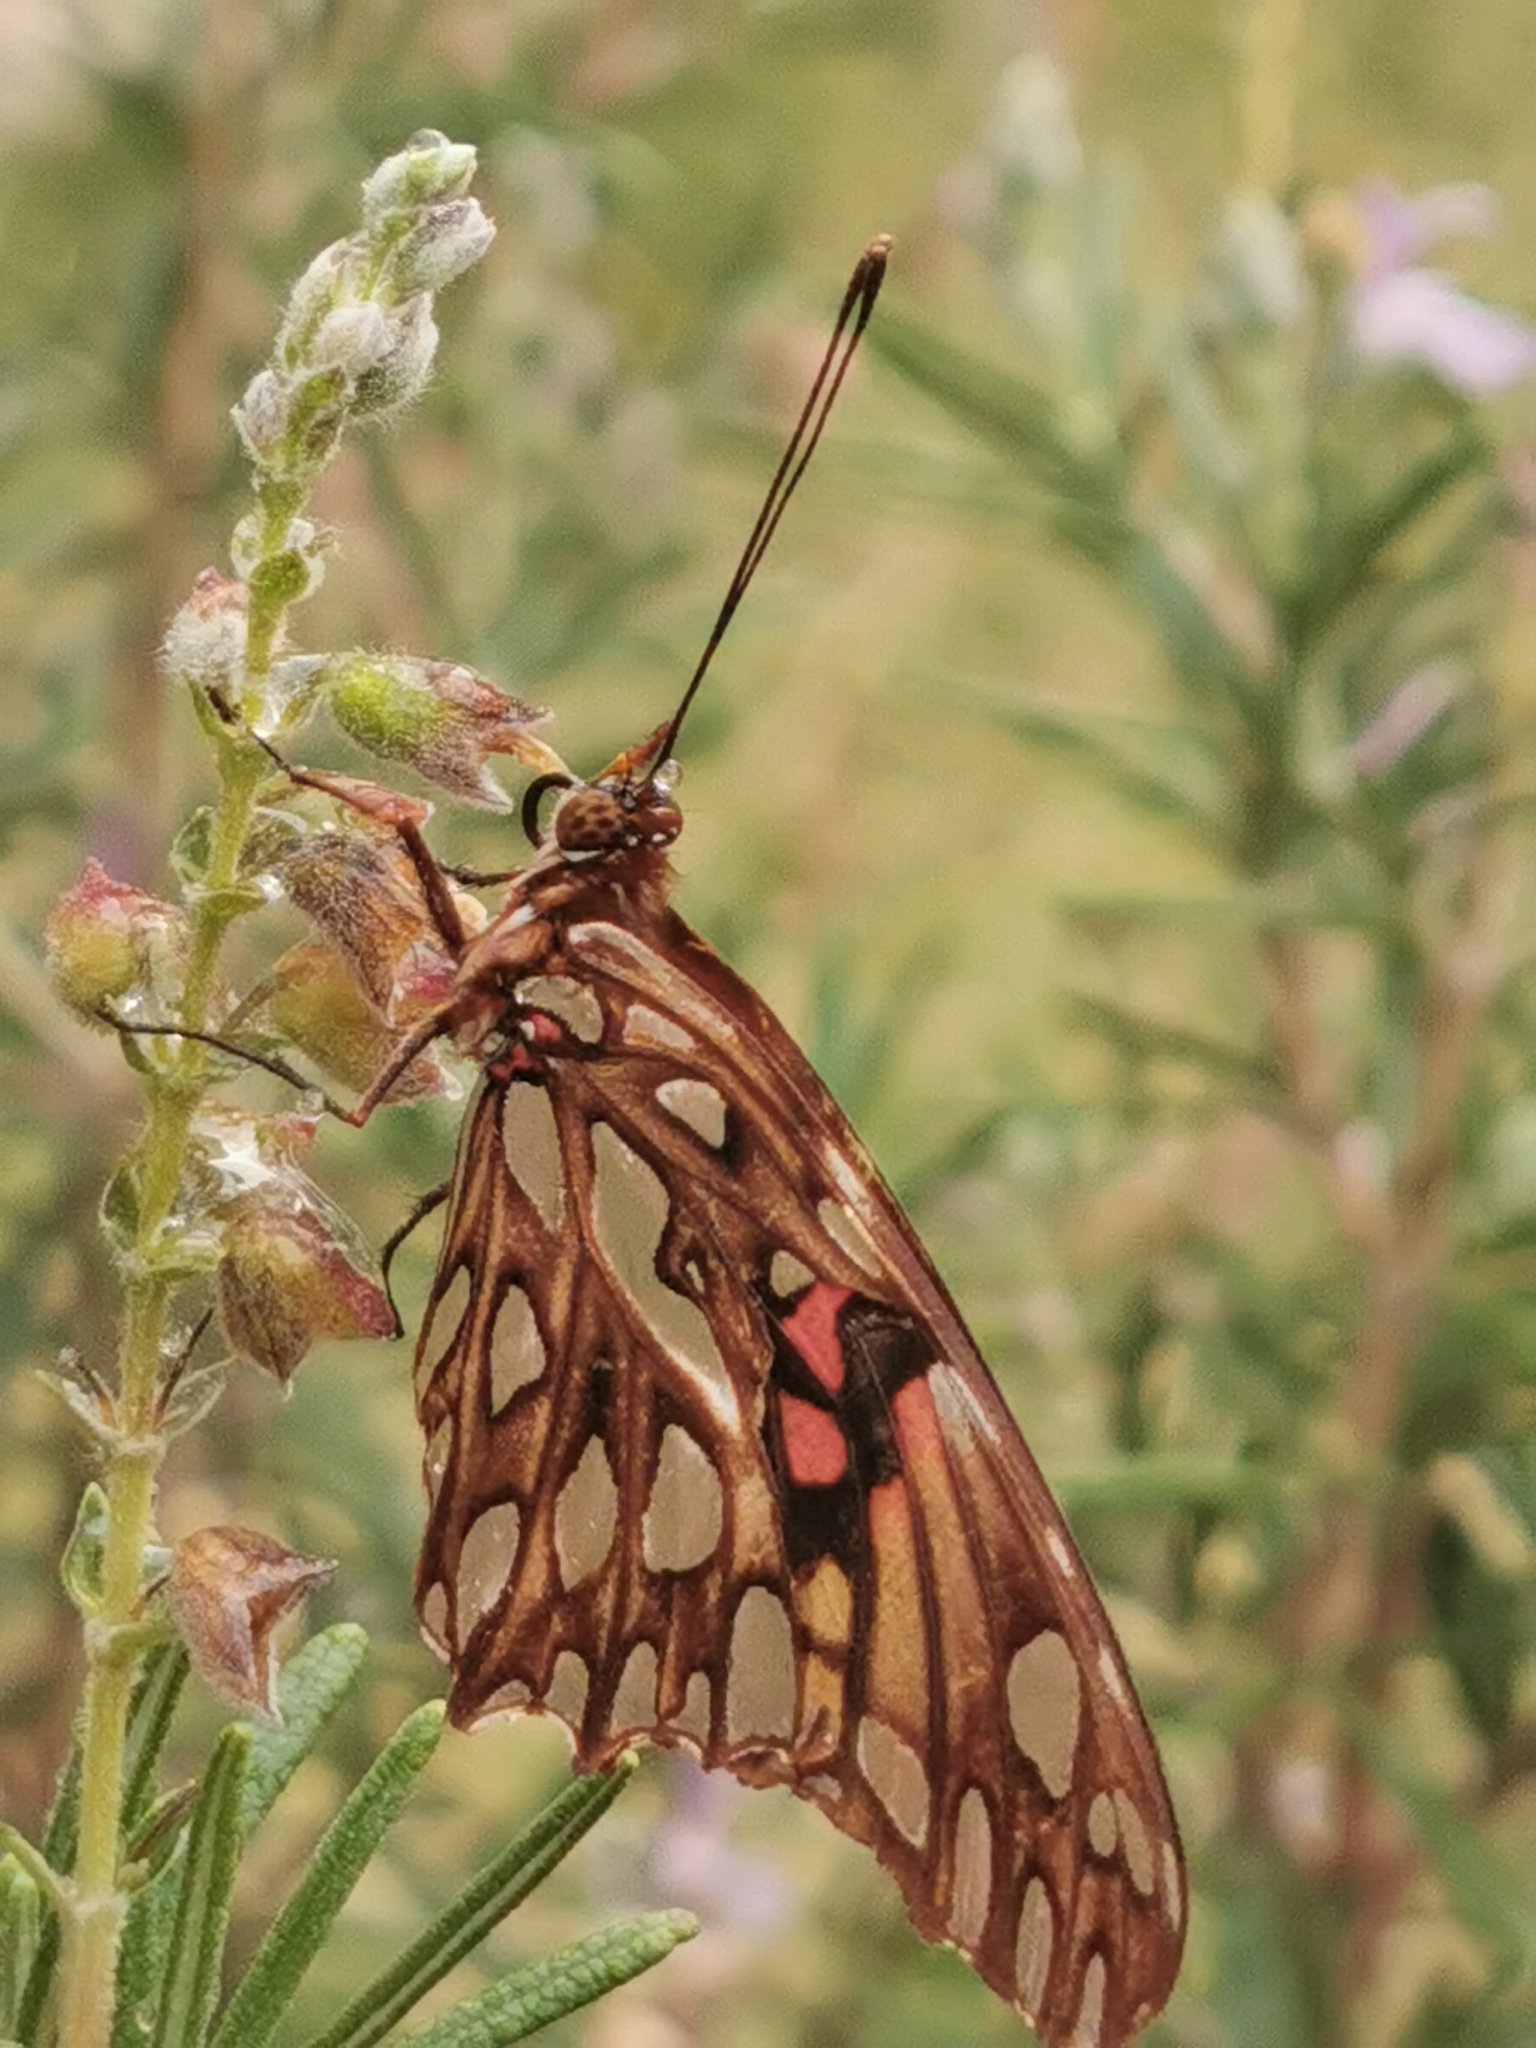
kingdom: Animalia
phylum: Arthropoda
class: Insecta
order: Lepidoptera
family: Nymphalidae
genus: Dione
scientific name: Dione moneta
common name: Mexican silverspot
